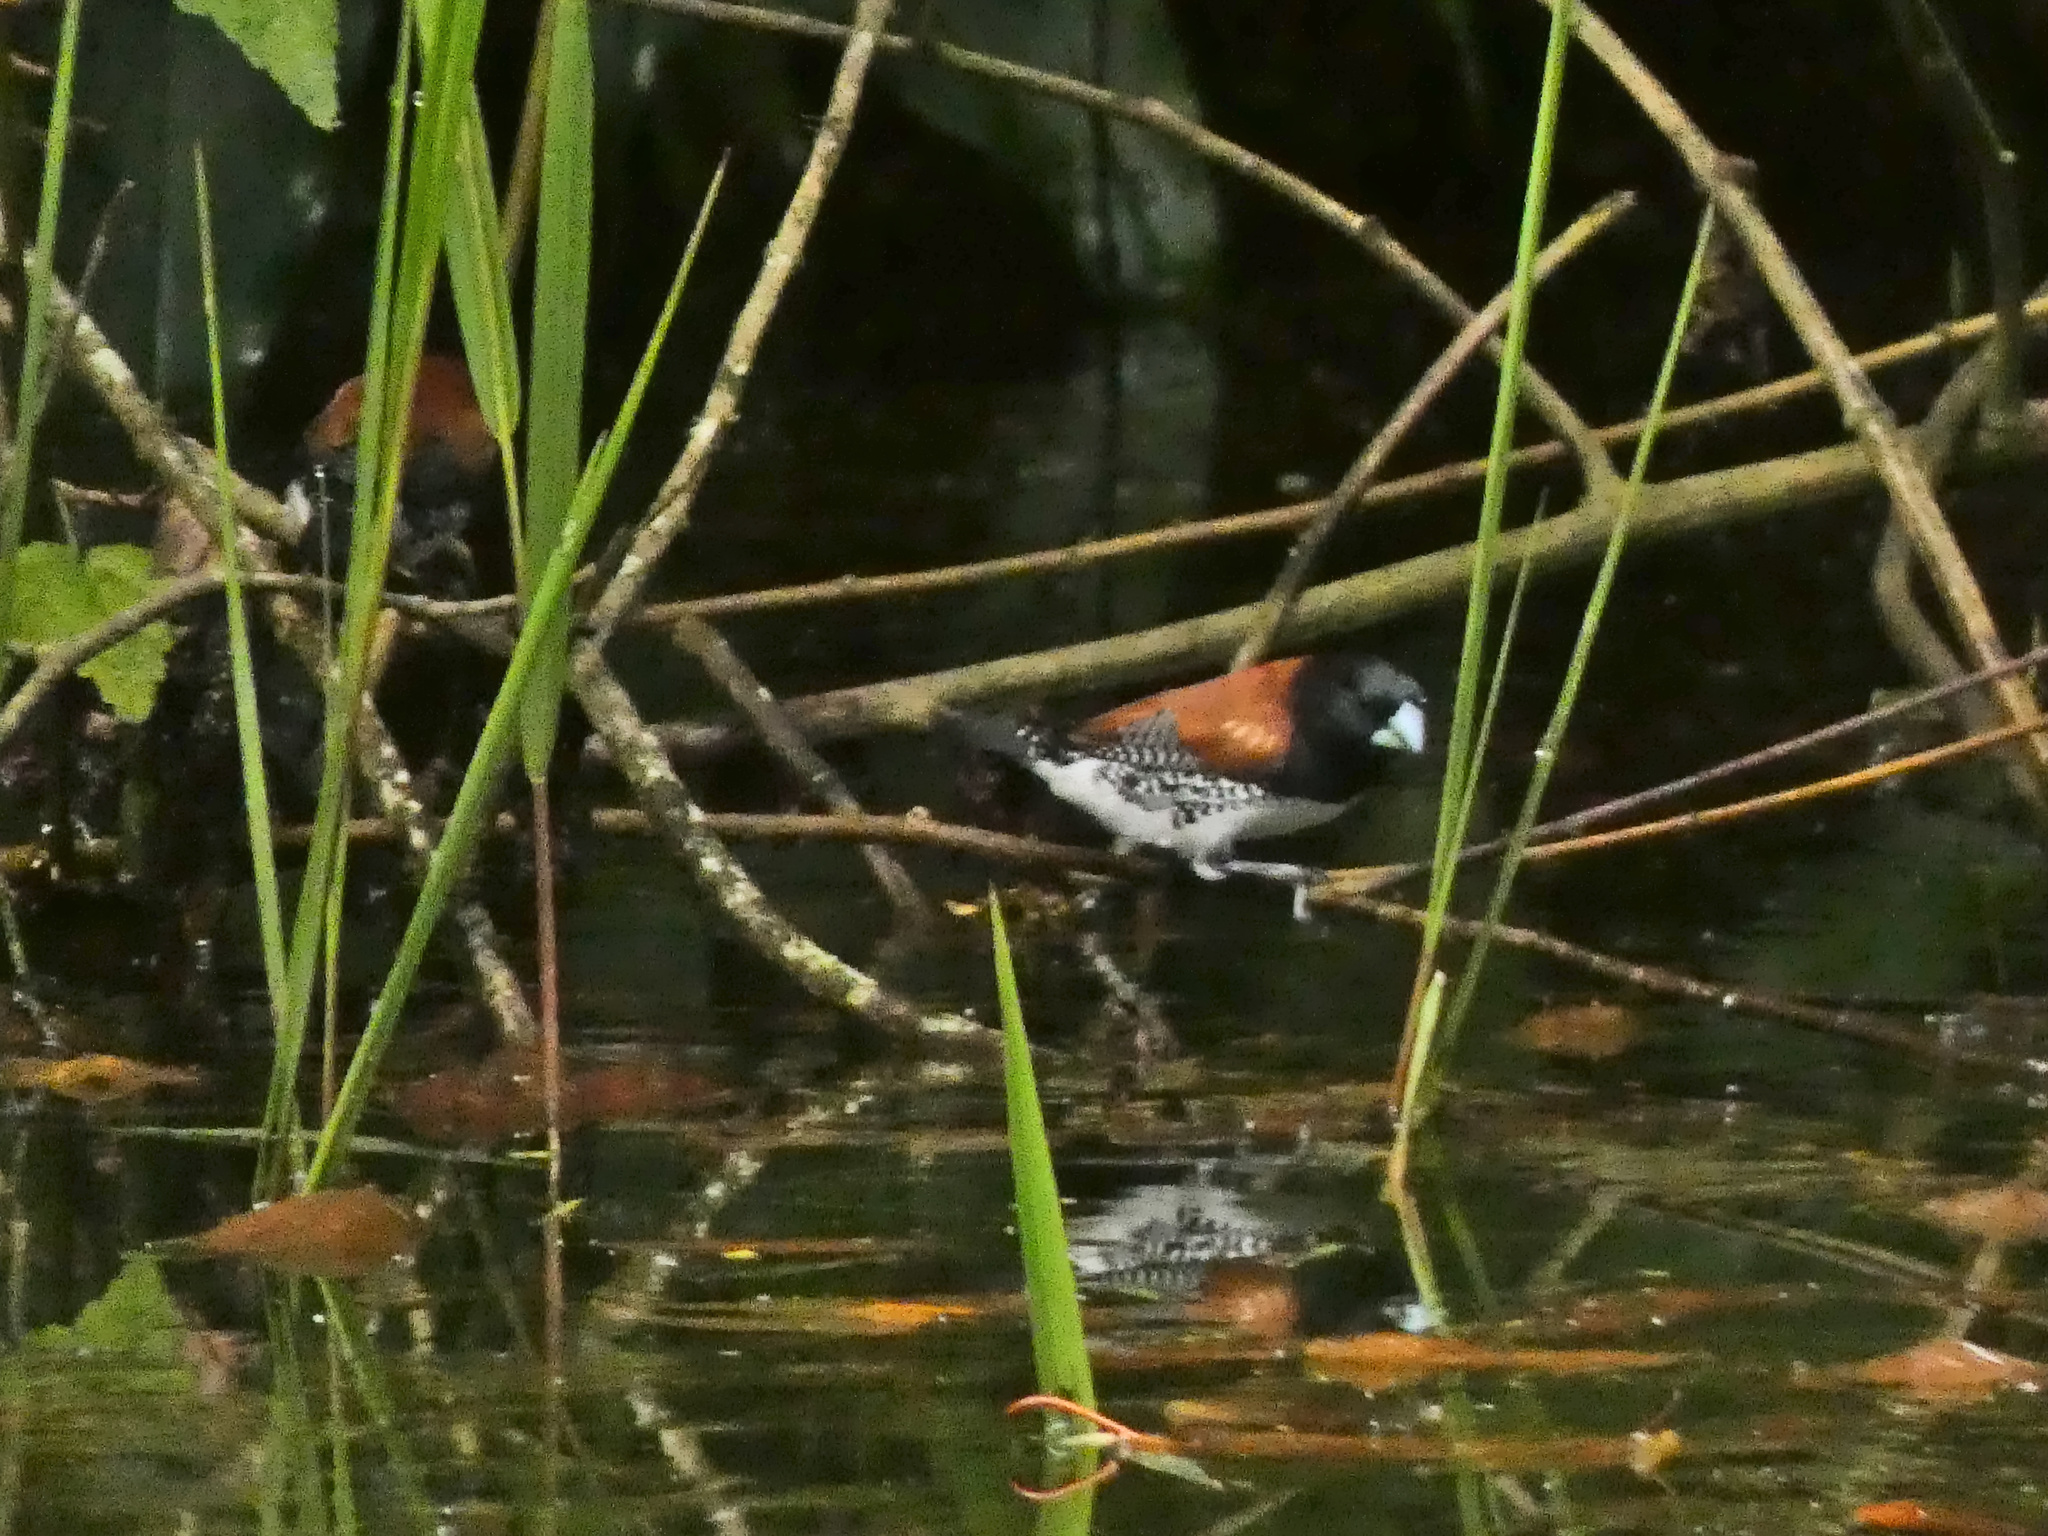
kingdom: Animalia
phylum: Chordata
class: Aves
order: Passeriformes
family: Estrildidae
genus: Lonchura
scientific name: Lonchura nigriceps
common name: Red-backed mannikin
